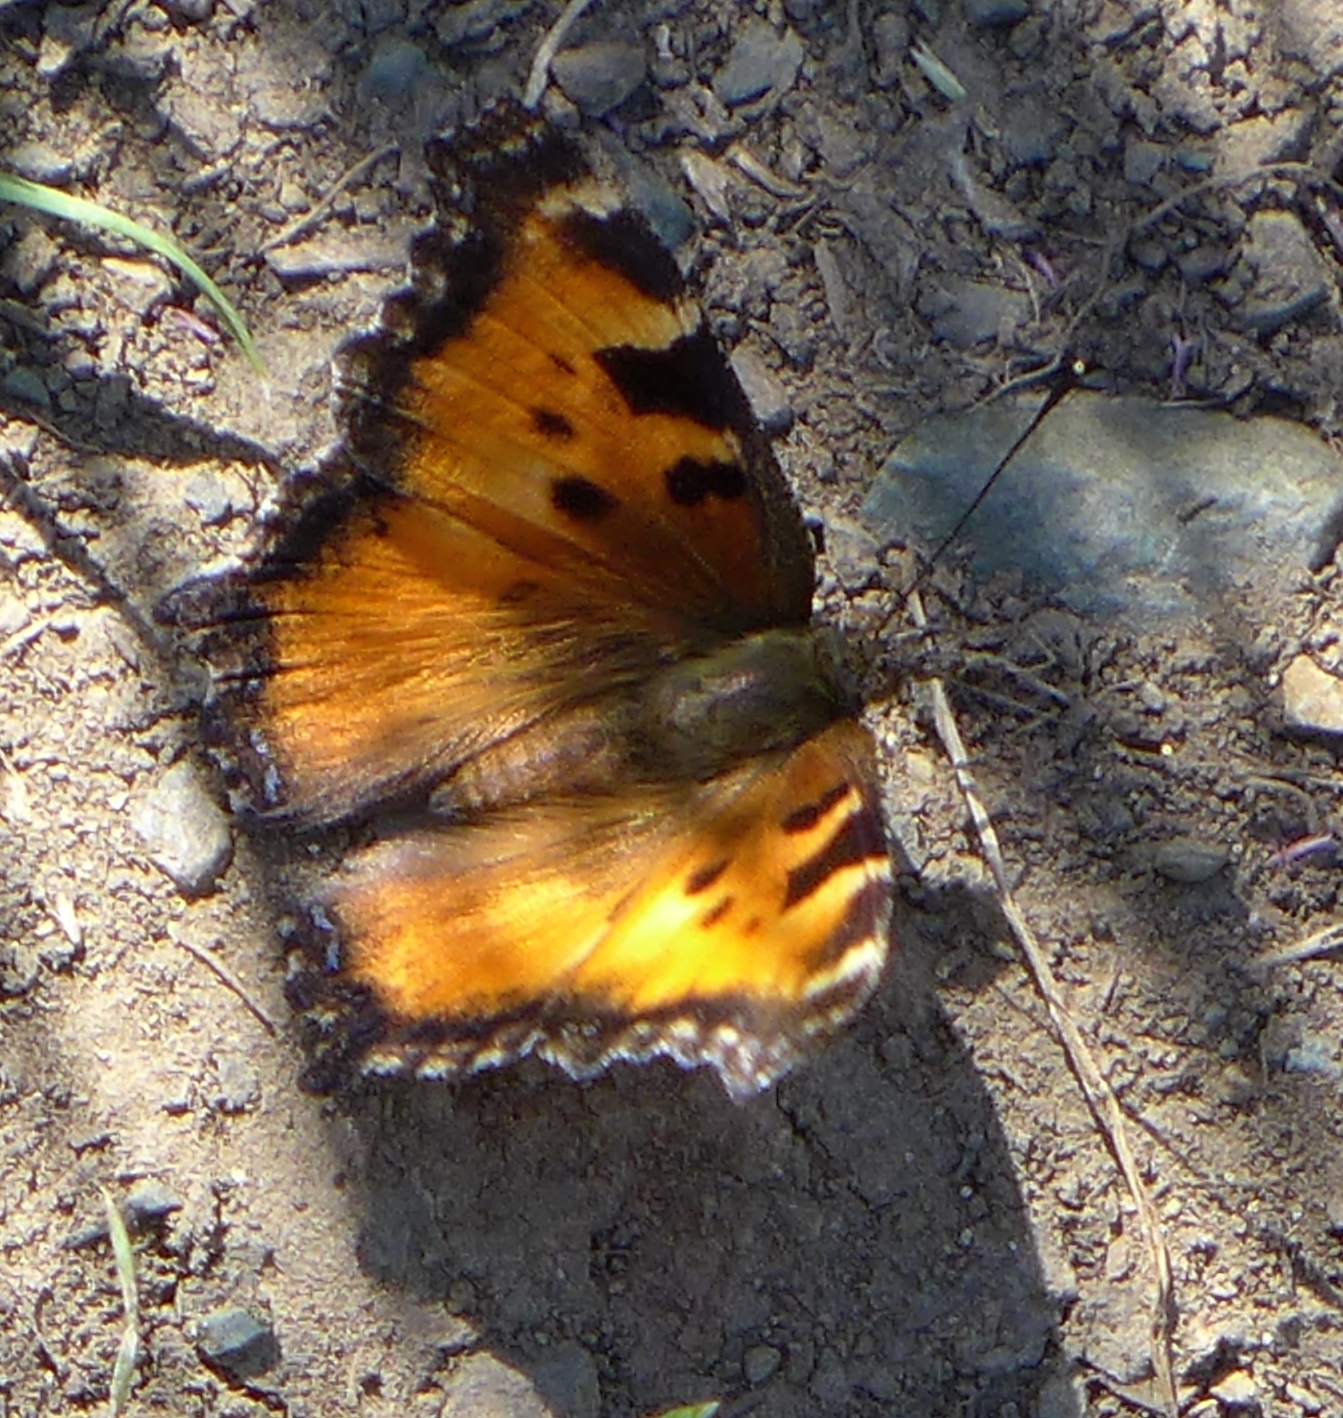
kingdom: Animalia
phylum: Arthropoda
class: Insecta
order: Lepidoptera
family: Nymphalidae
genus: Nymphalis
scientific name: Nymphalis californica
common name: California tortoiseshell
